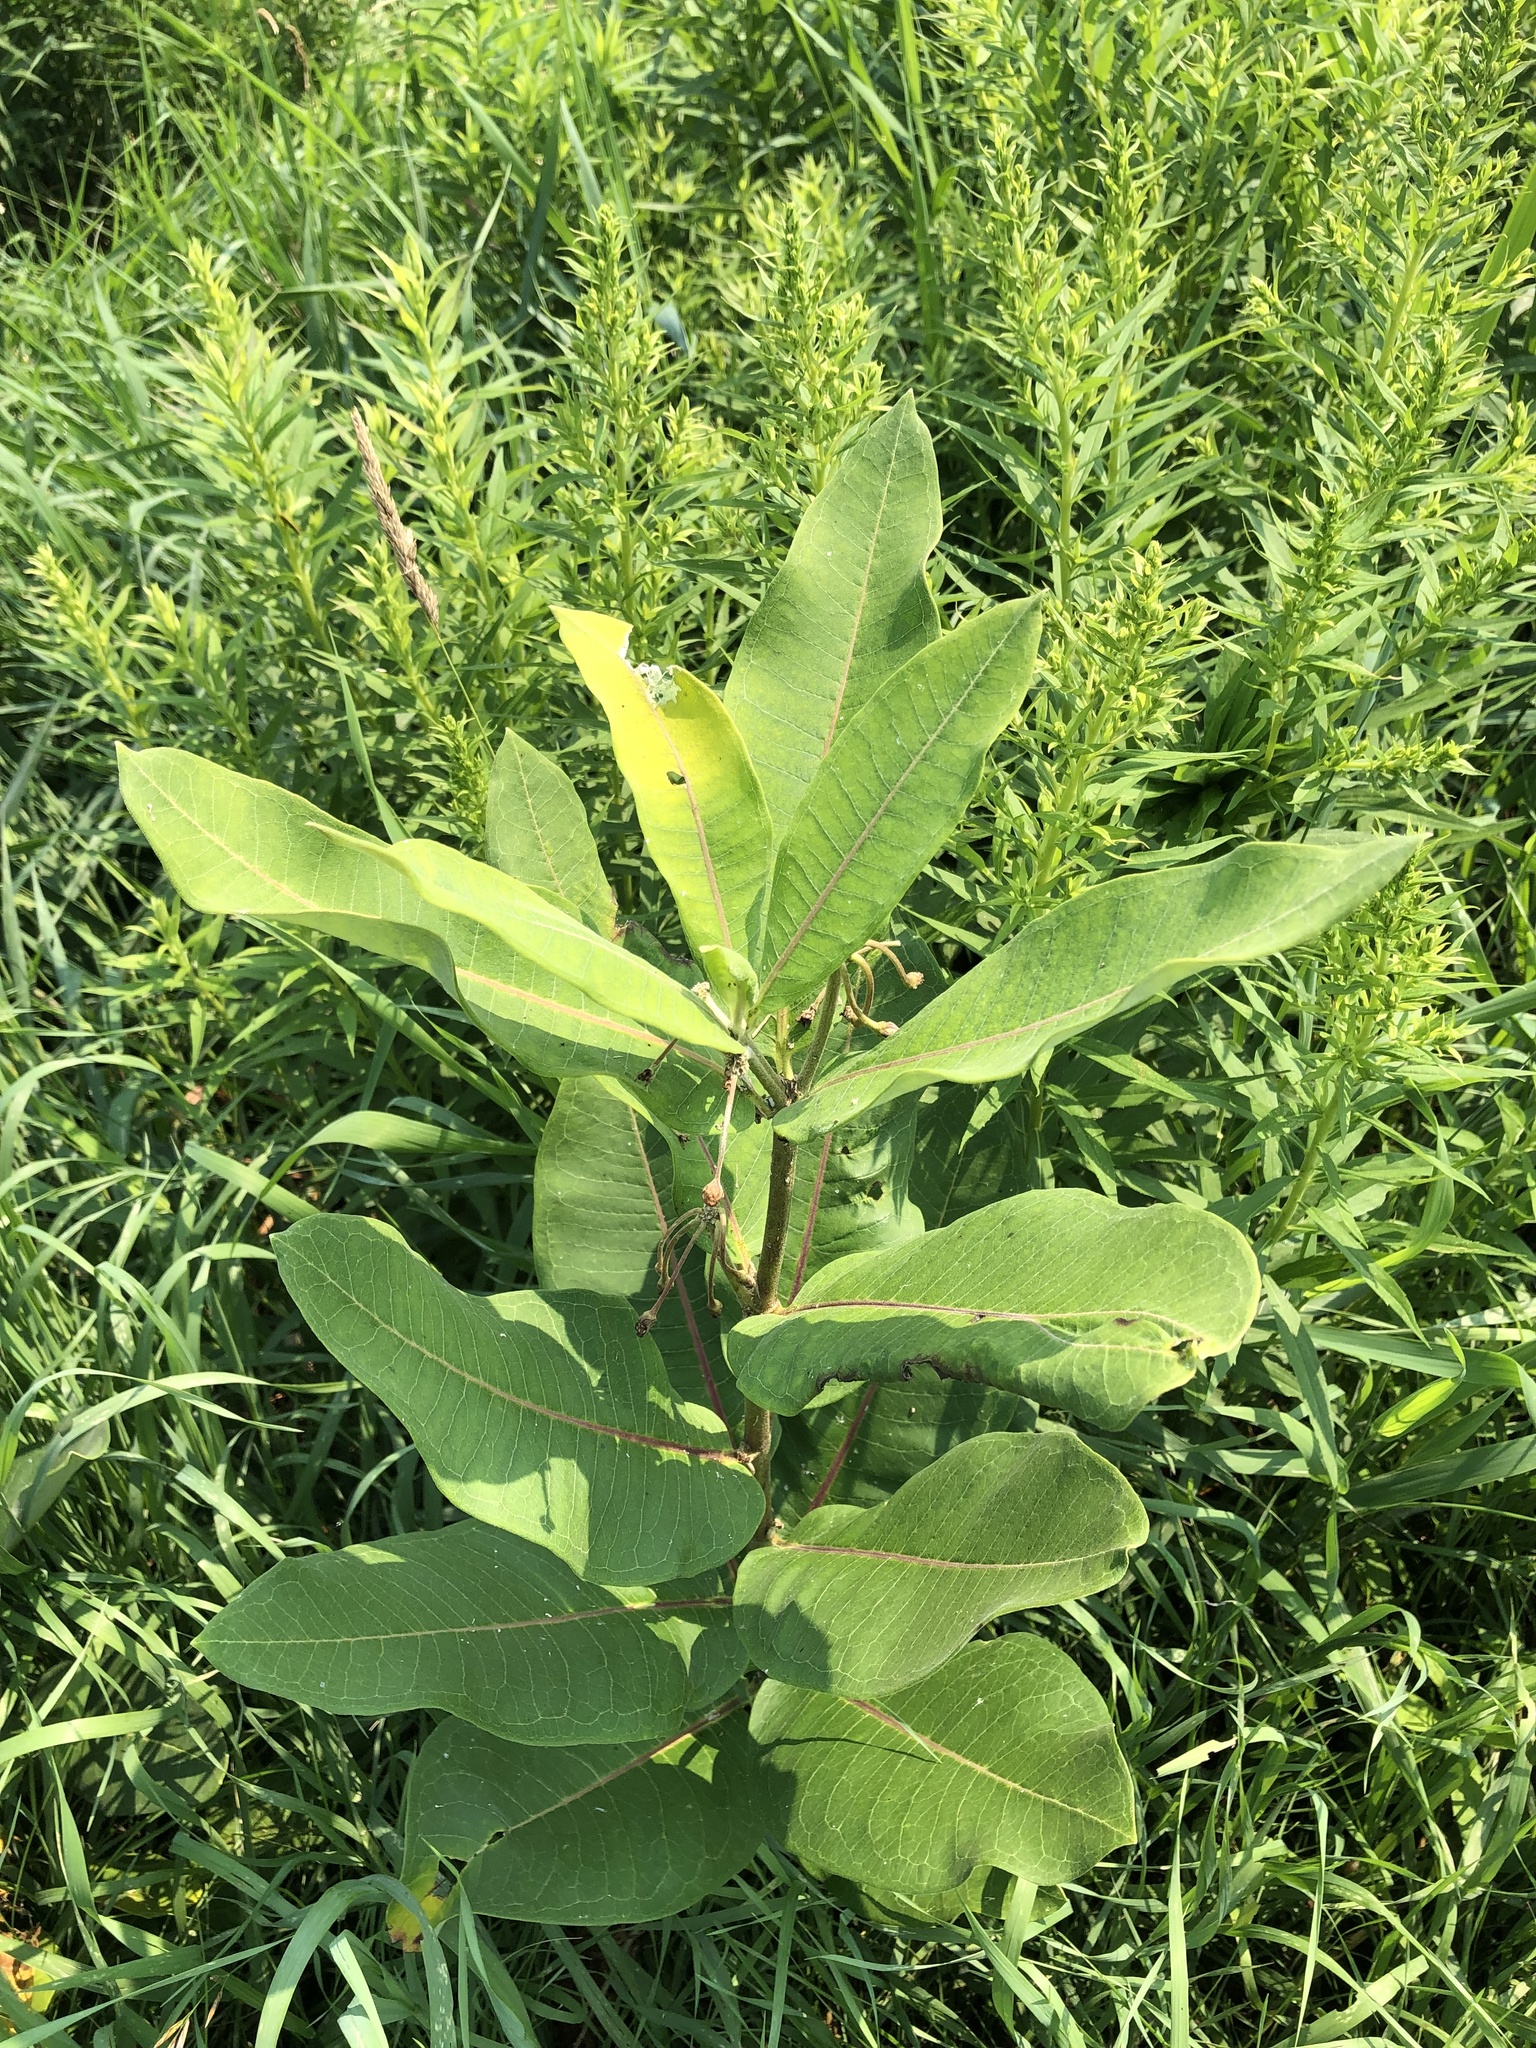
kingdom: Plantae
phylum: Tracheophyta
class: Magnoliopsida
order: Gentianales
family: Apocynaceae
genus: Asclepias
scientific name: Asclepias syriaca
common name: Common milkweed
